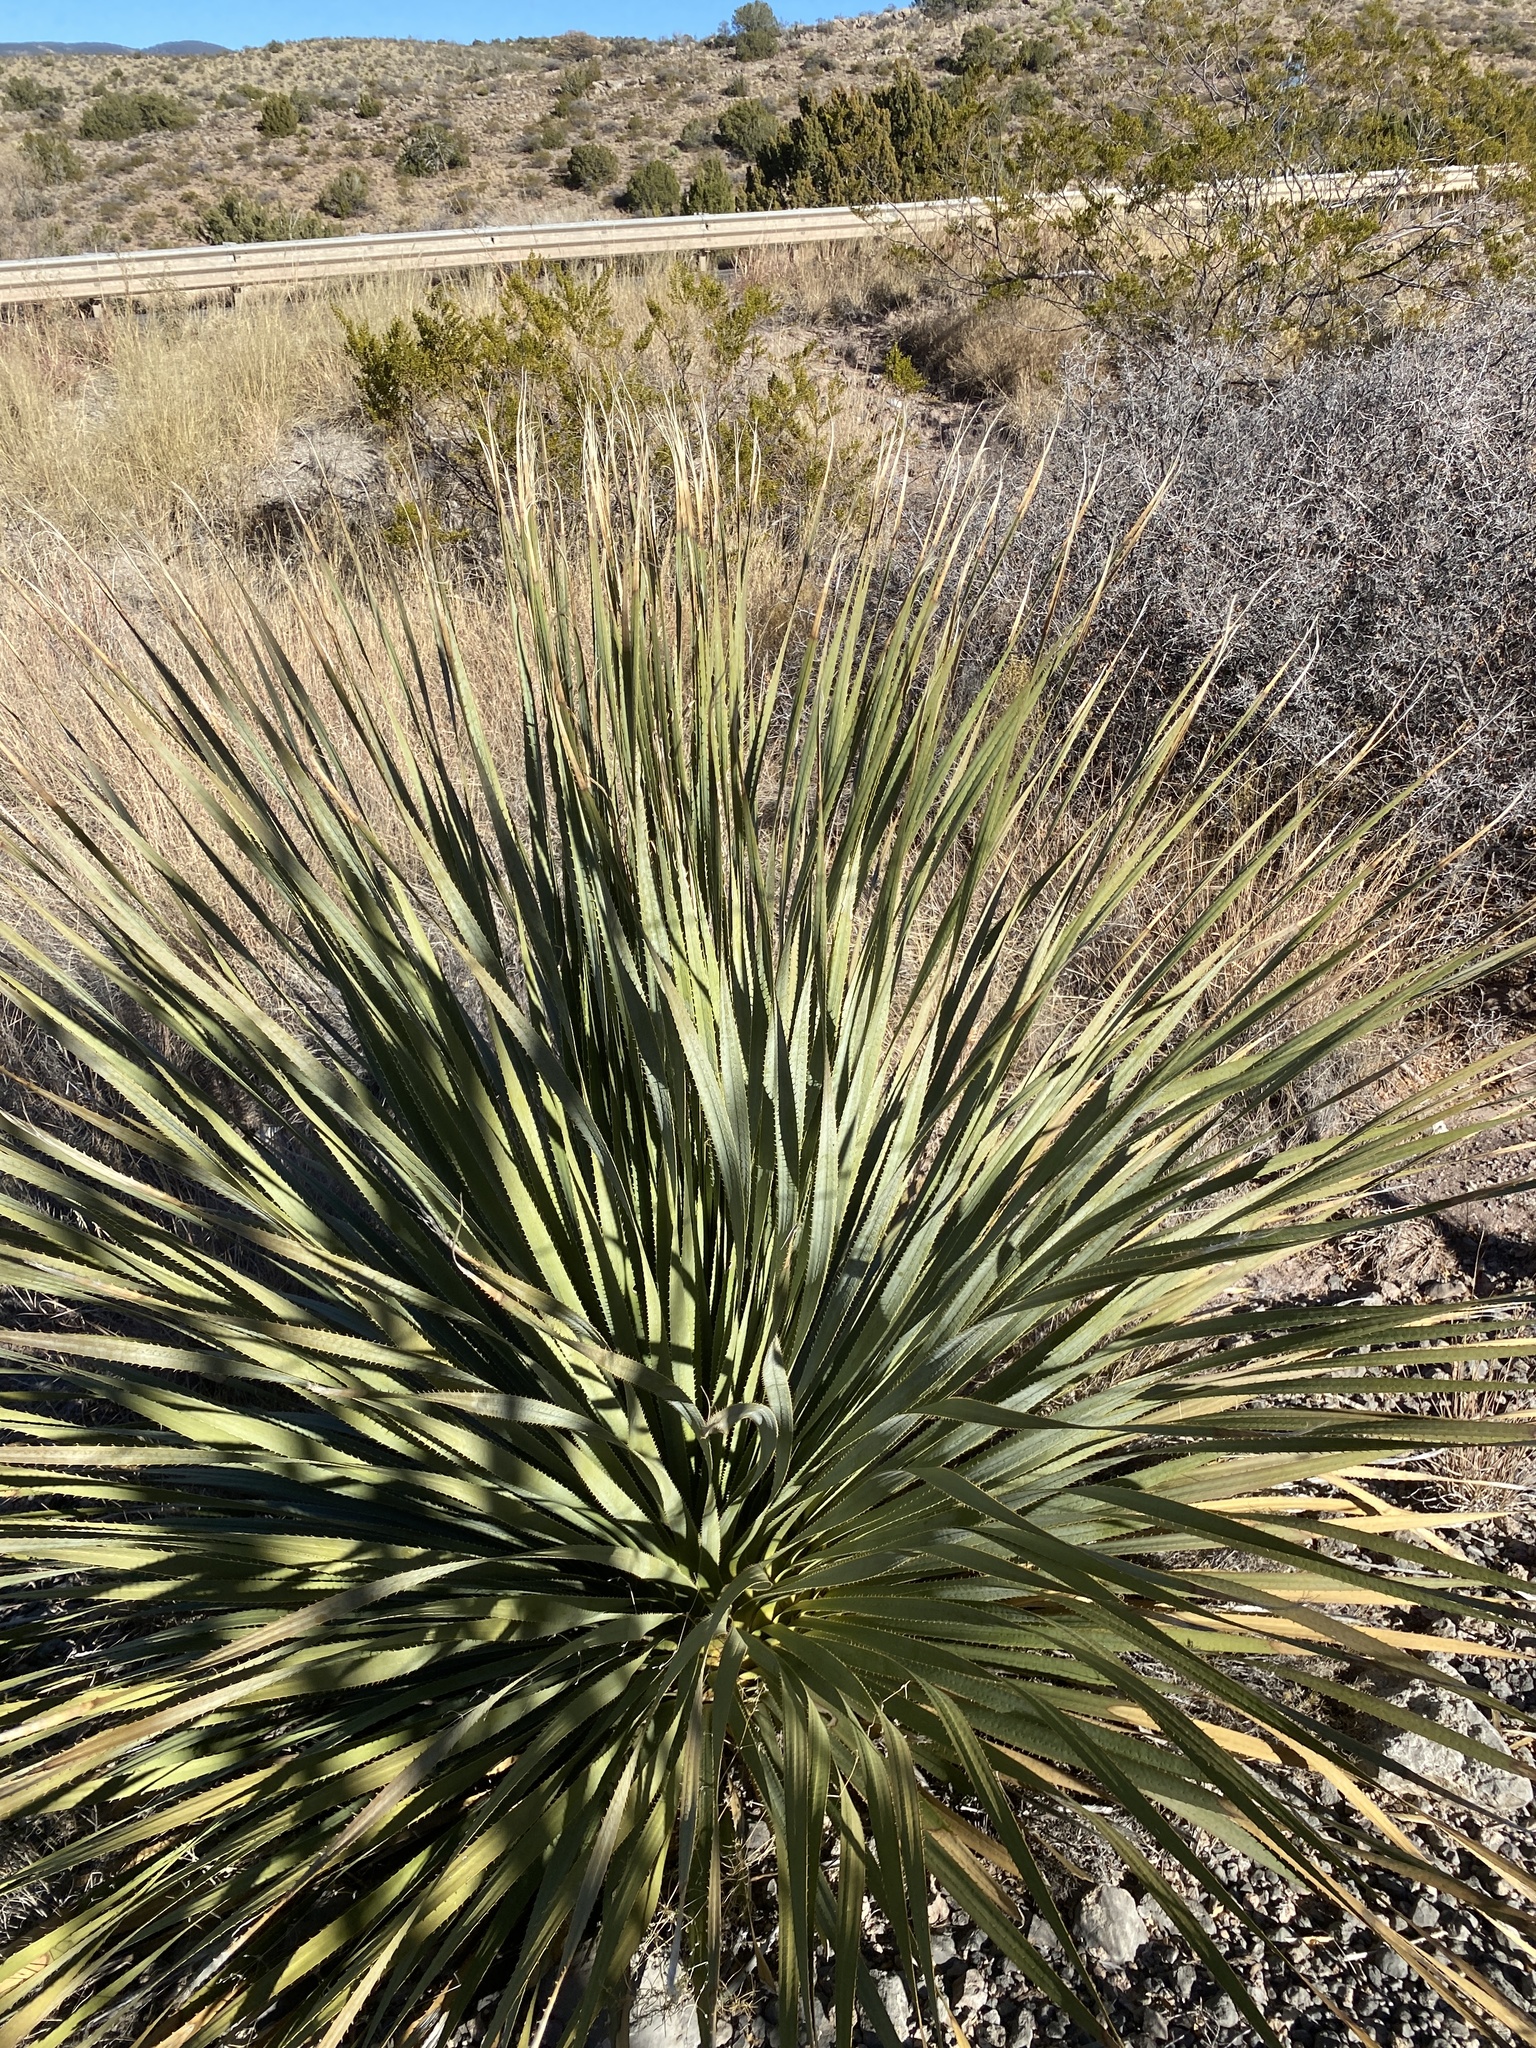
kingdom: Plantae
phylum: Tracheophyta
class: Liliopsida
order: Asparagales
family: Asparagaceae
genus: Dasylirion
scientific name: Dasylirion wheeleri
